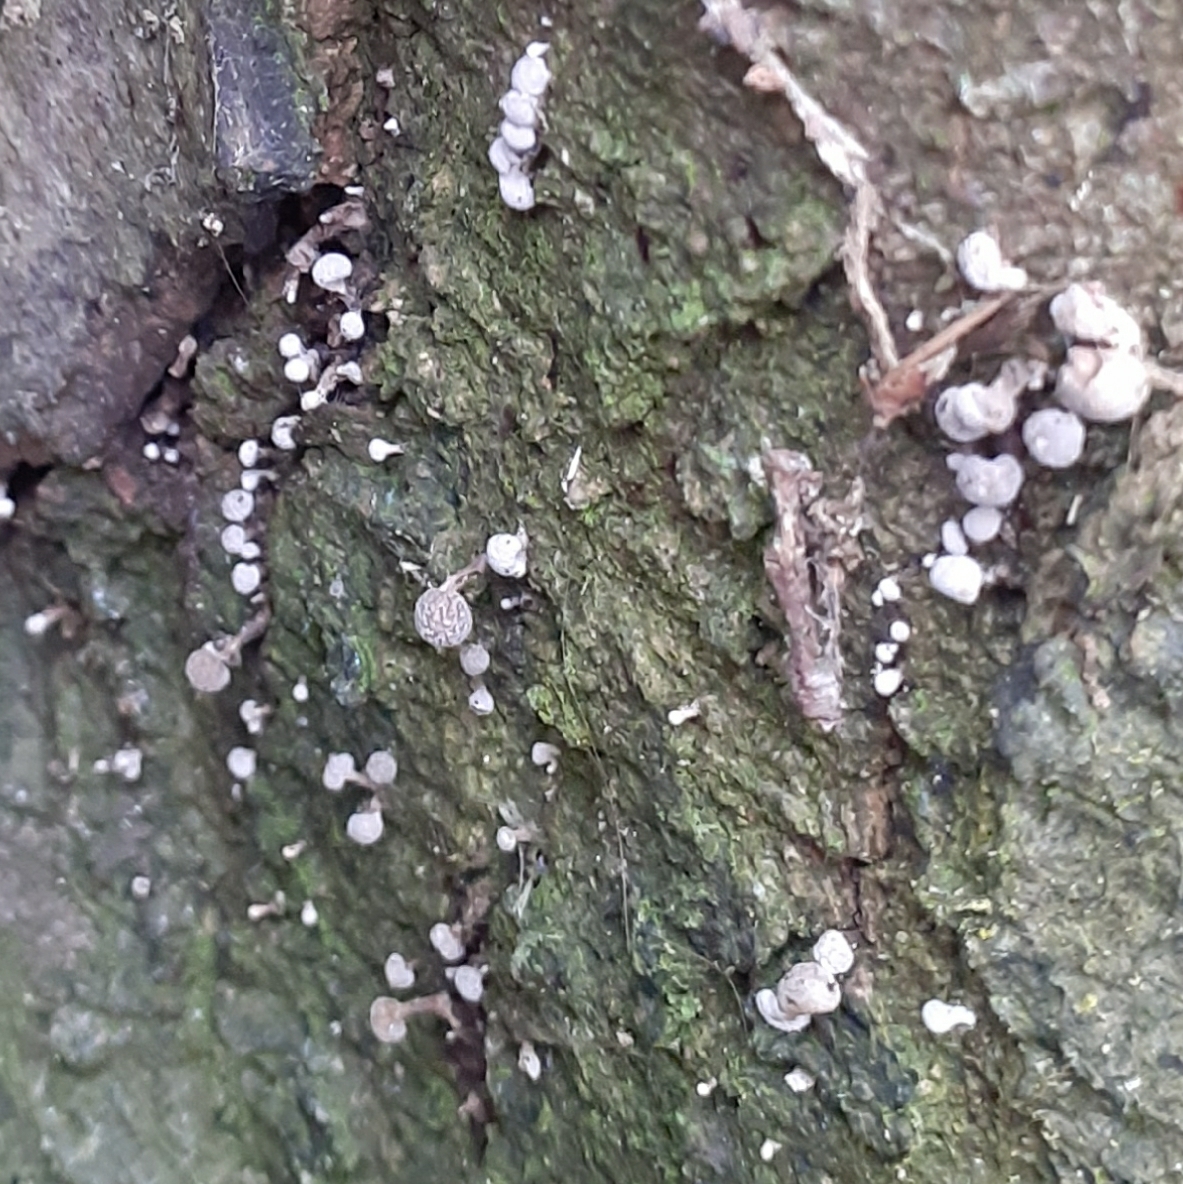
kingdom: Fungi
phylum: Basidiomycota
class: Atractiellomycetes
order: Atractiellales
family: Phleogenaceae
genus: Phleogena
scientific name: Phleogena faginea
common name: Fenugreek stalkball
